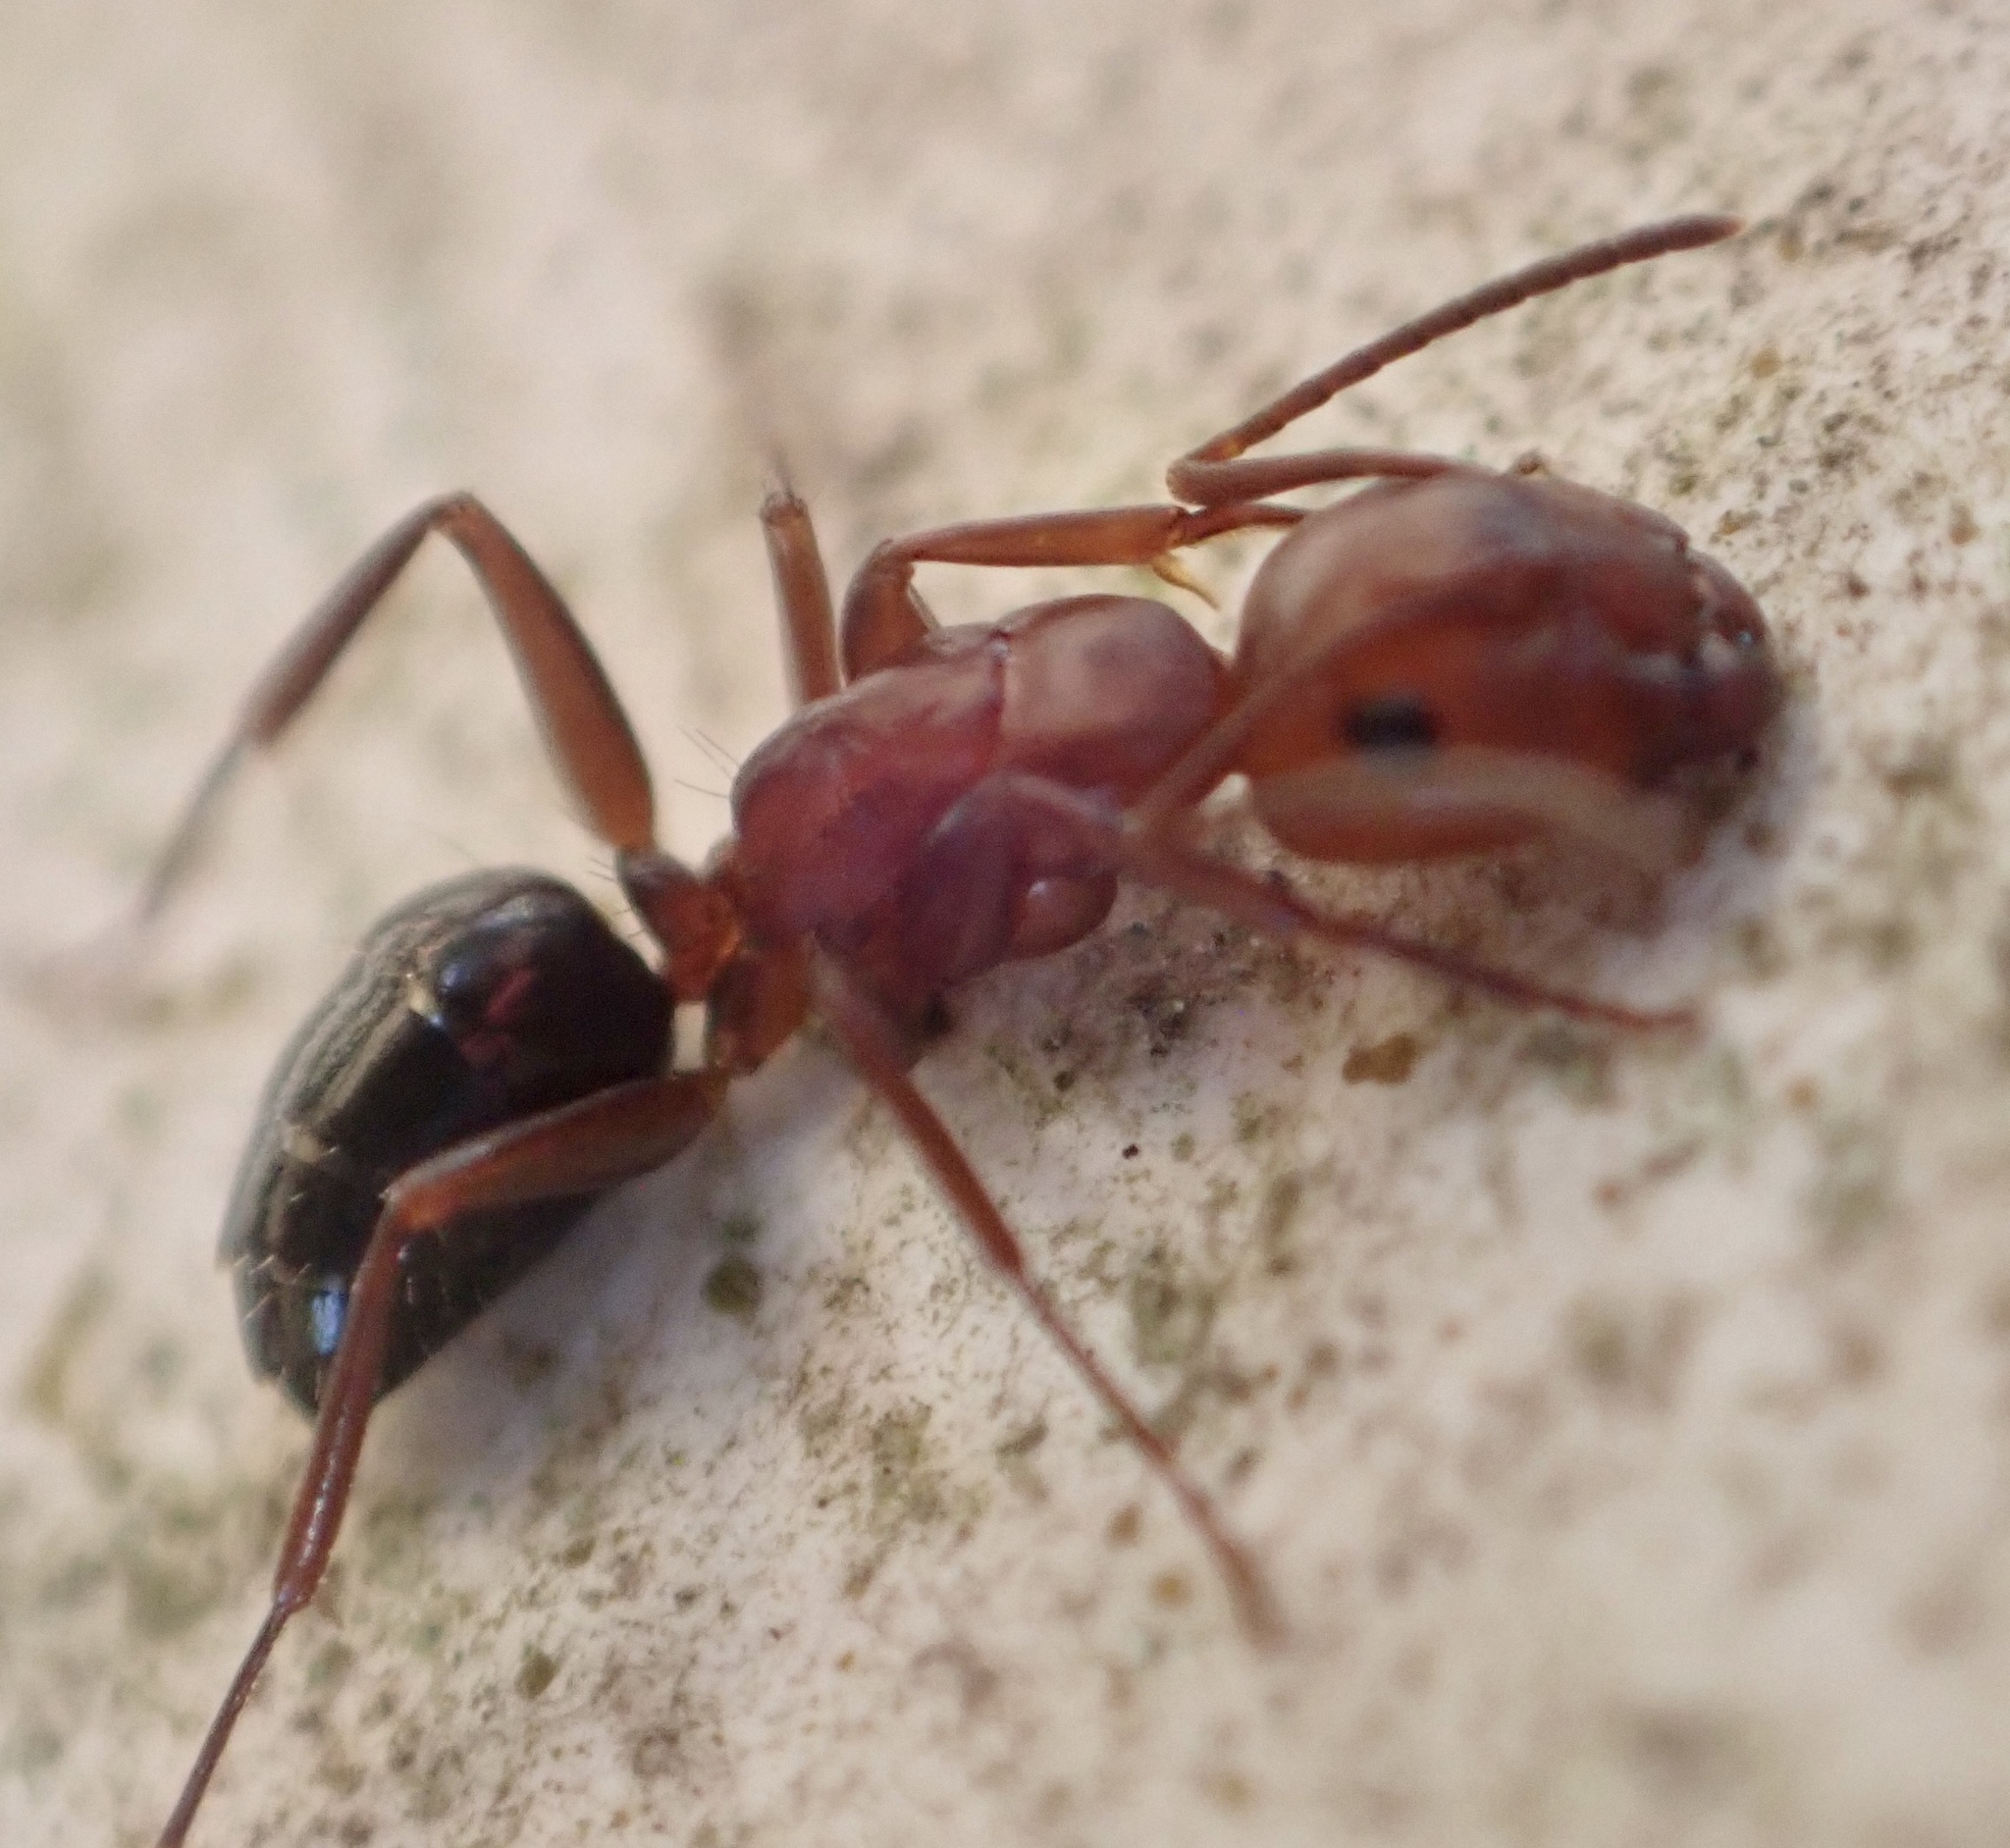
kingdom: Animalia
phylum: Arthropoda
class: Insecta
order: Hymenoptera
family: Formicidae
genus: Camponotus
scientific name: Camponotus decipiens
